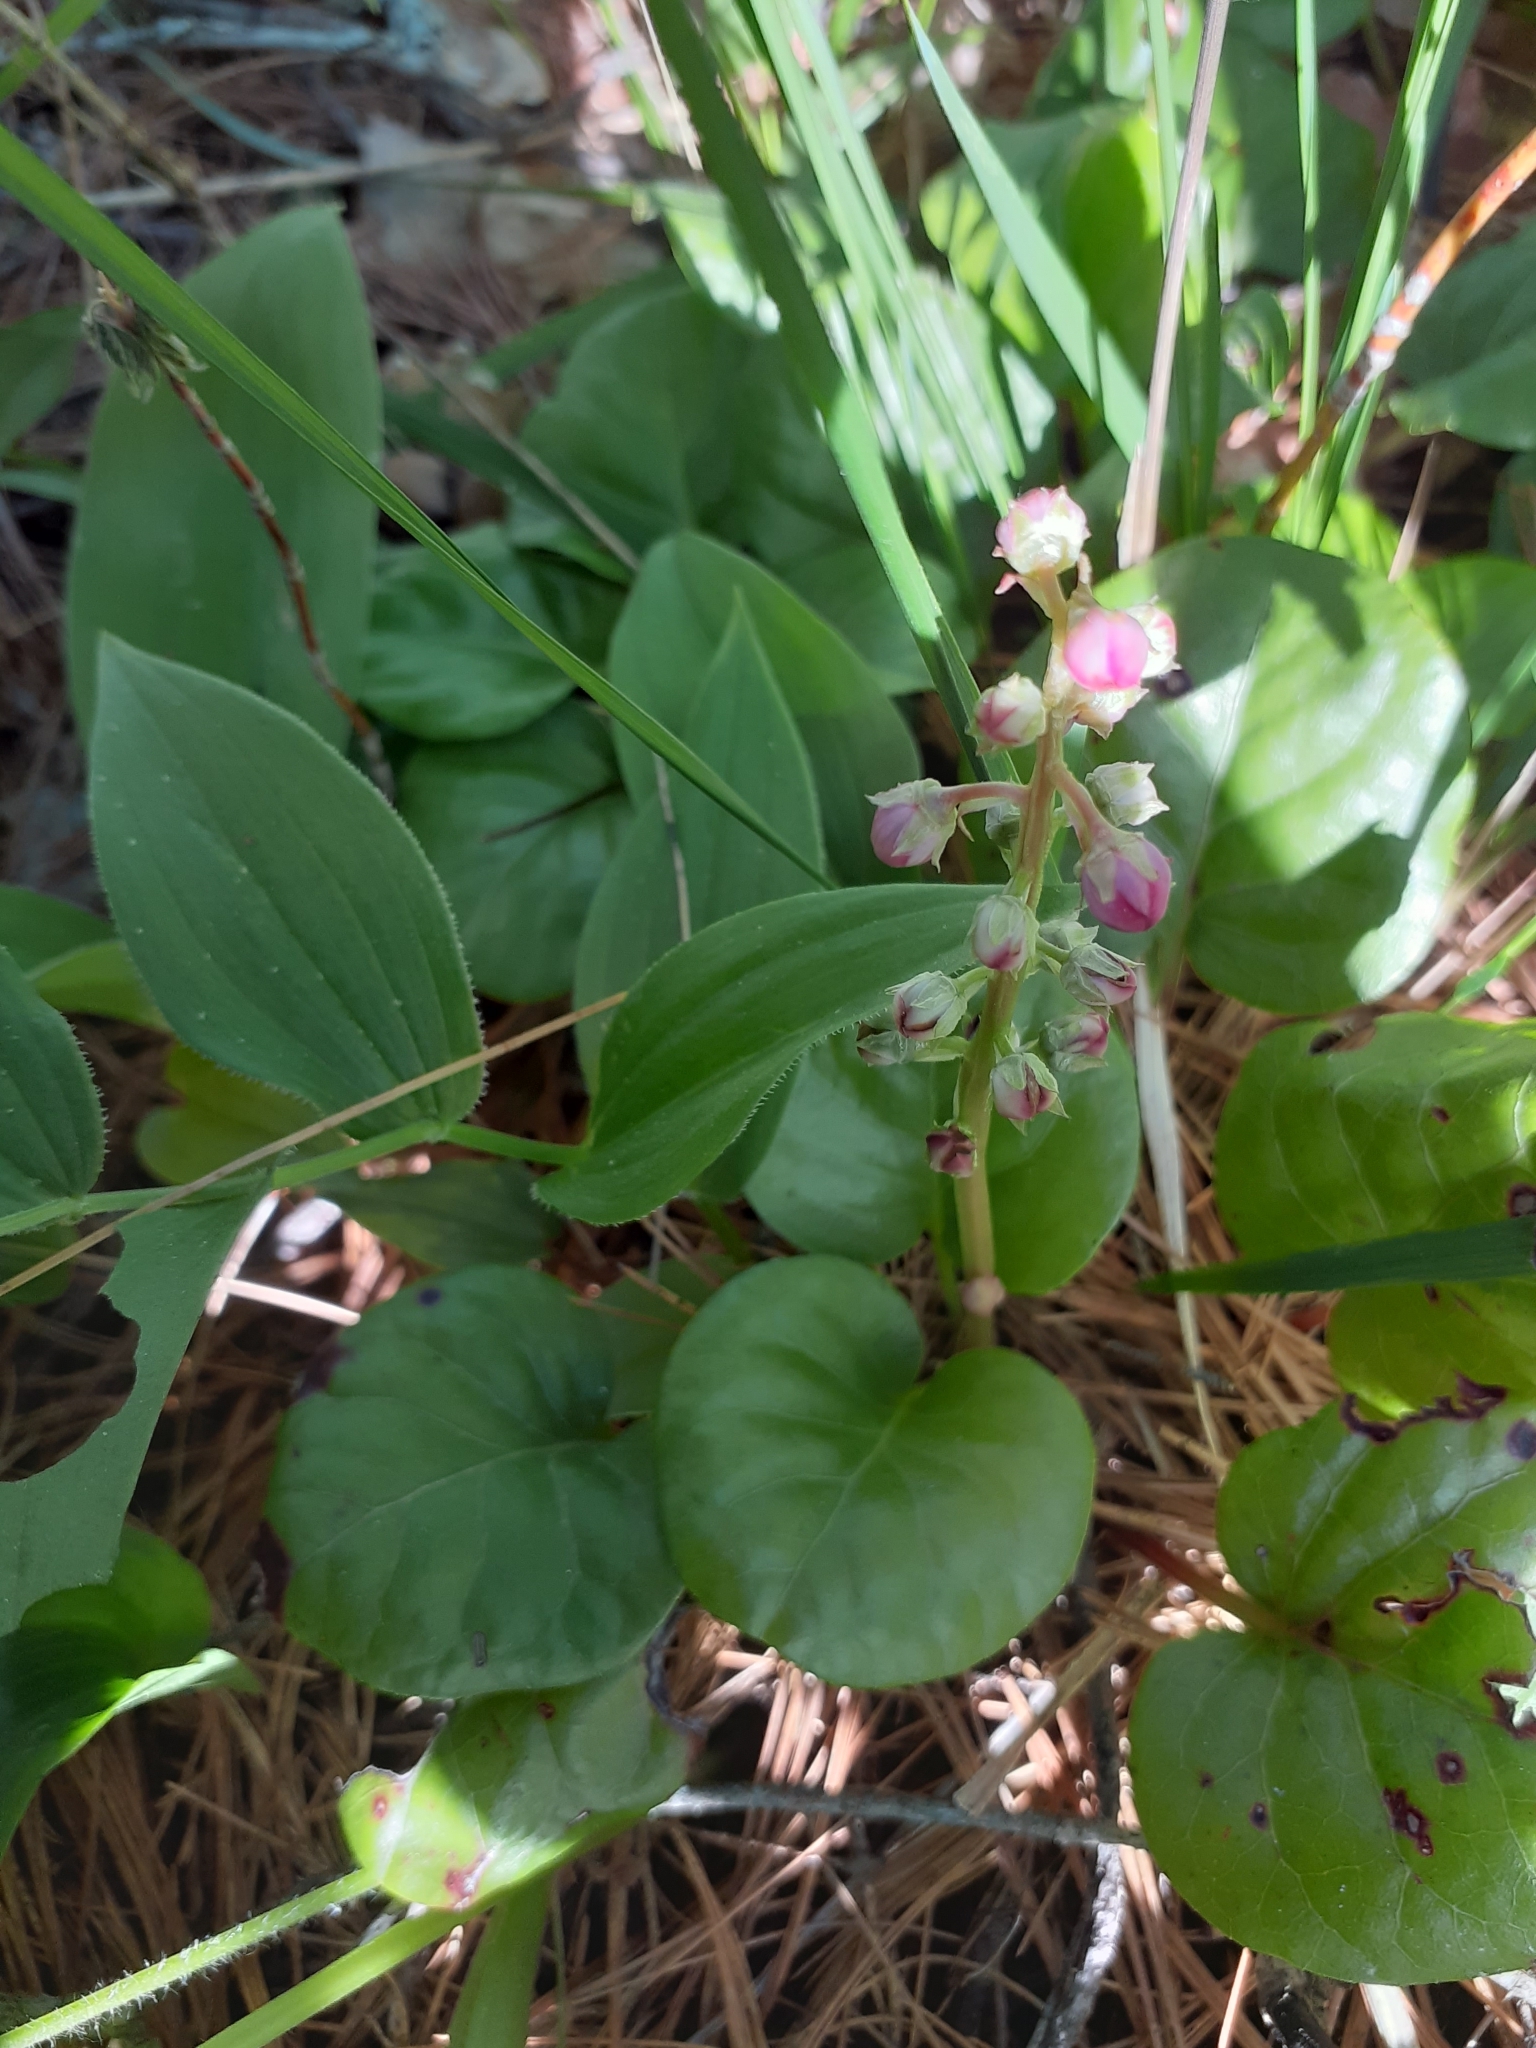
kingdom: Plantae
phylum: Tracheophyta
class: Magnoliopsida
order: Ericales
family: Ericaceae
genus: Pyrola
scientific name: Pyrola asarifolia
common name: Bog wintergreen
